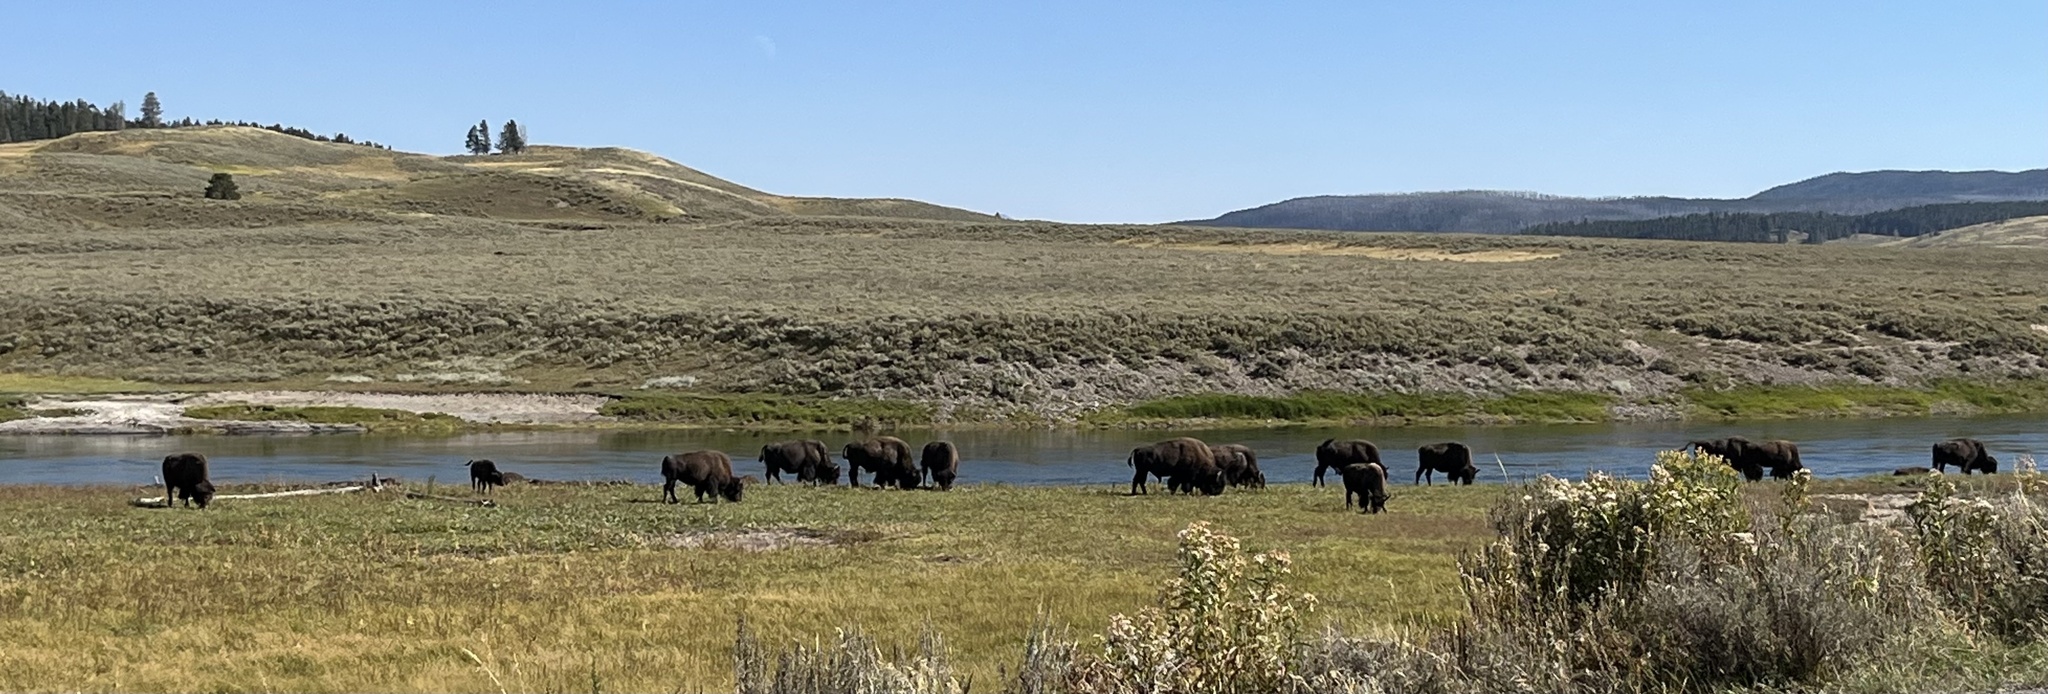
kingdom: Animalia
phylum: Chordata
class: Mammalia
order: Artiodactyla
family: Bovidae
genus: Bison
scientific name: Bison bison
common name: American bison
